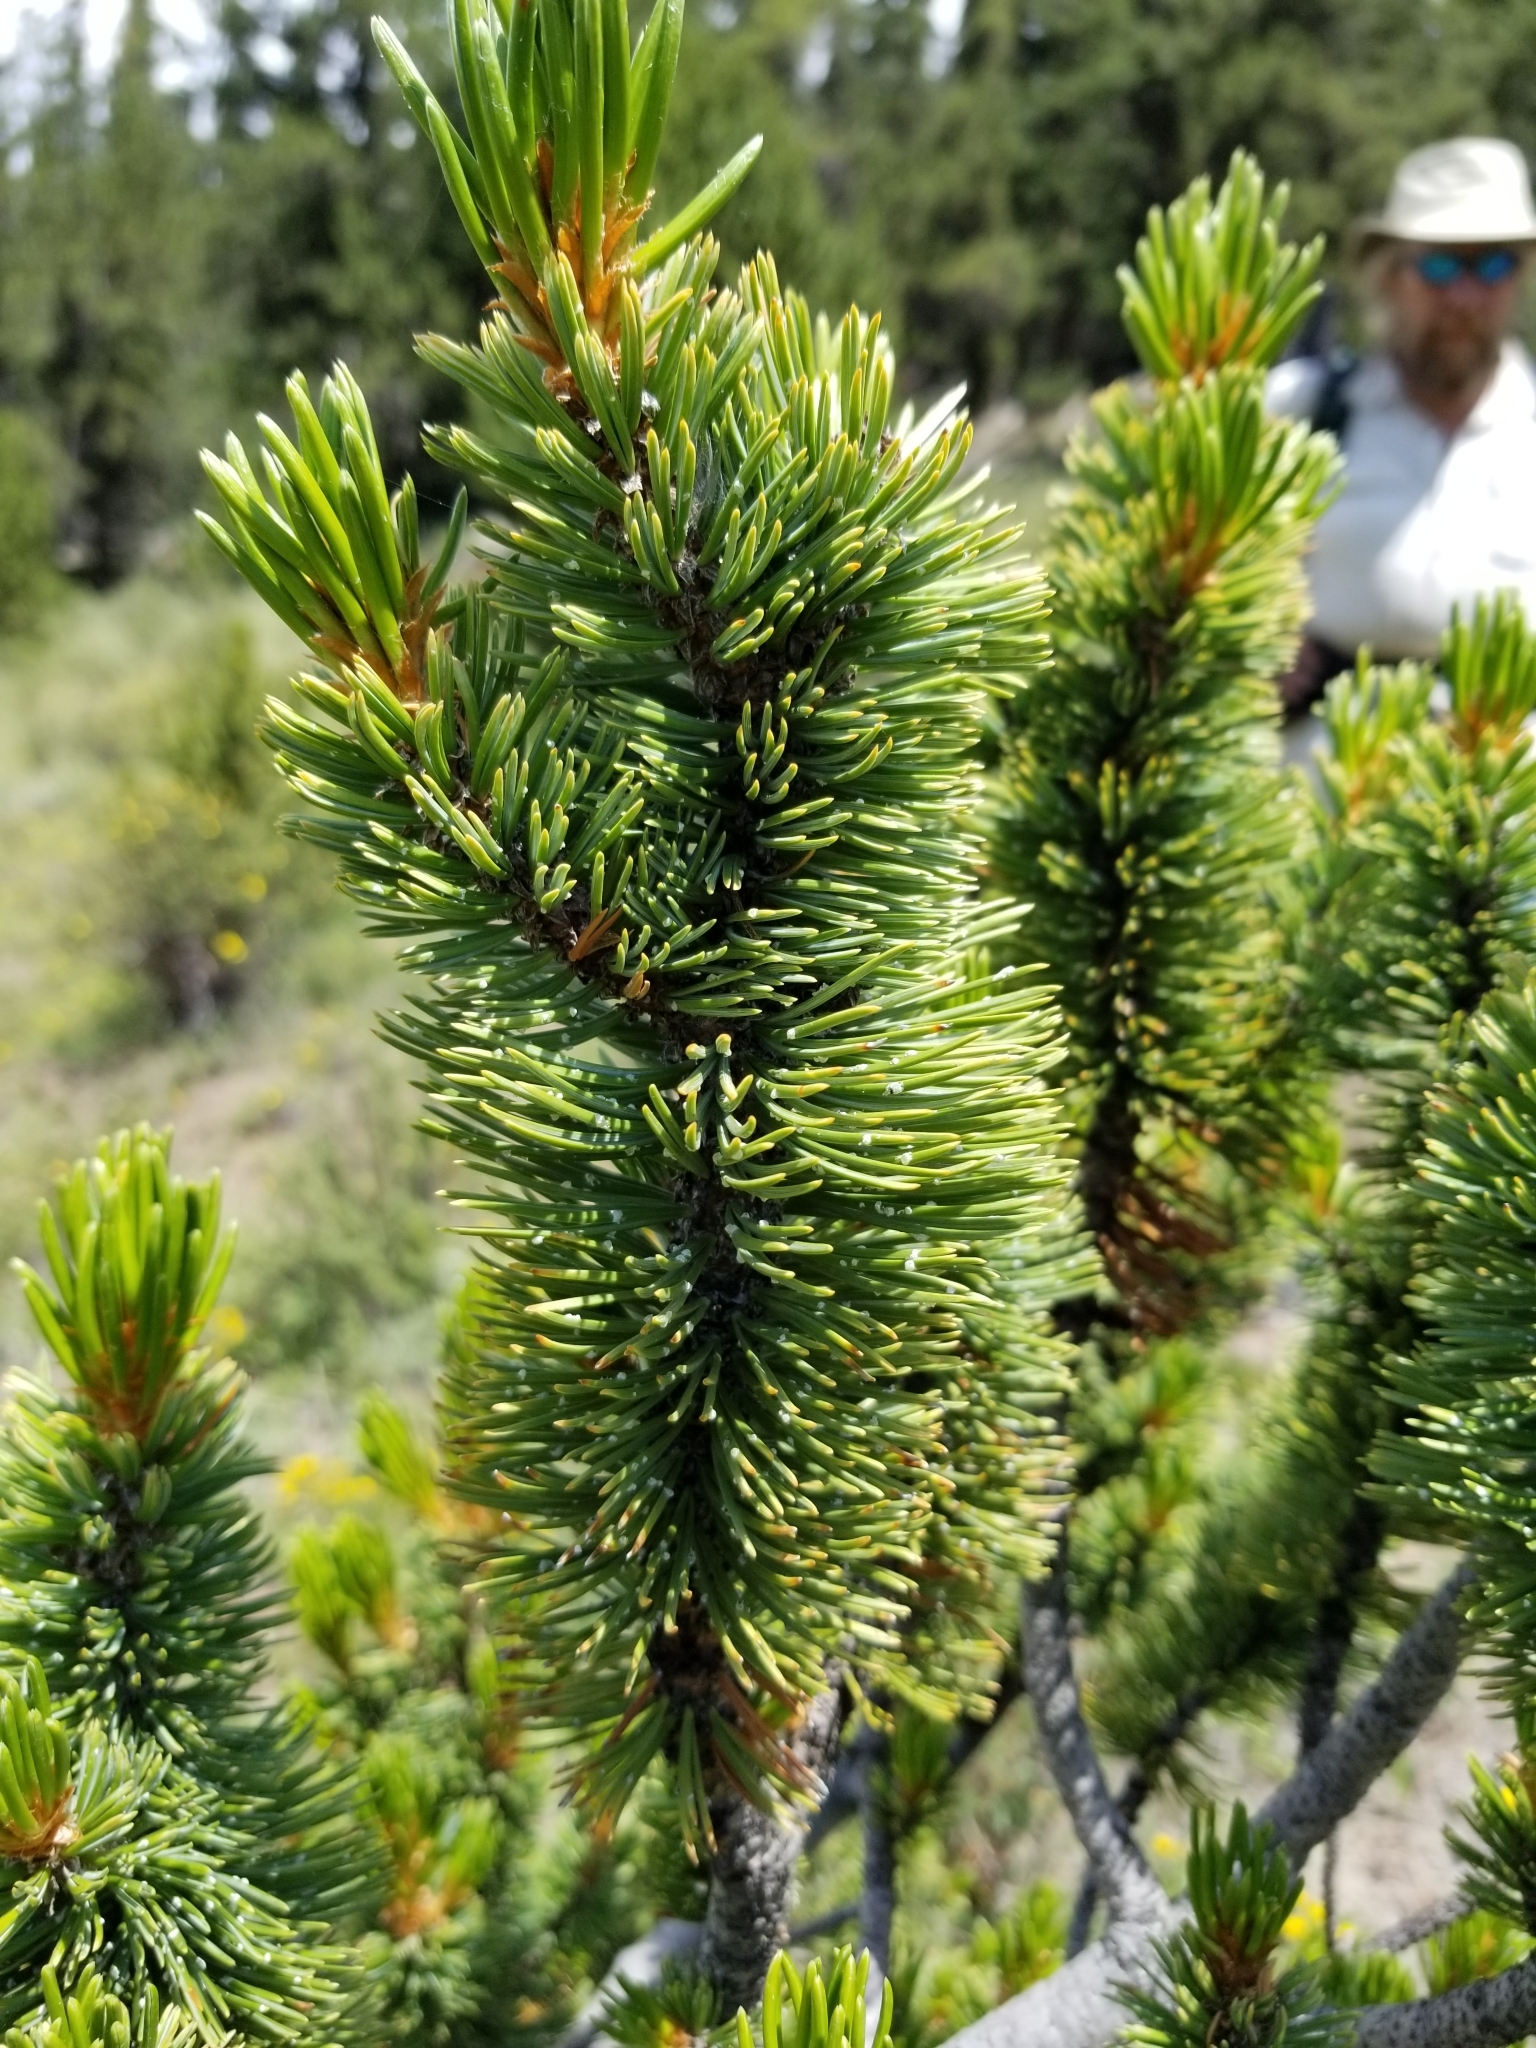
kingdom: Plantae
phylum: Tracheophyta
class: Pinopsida
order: Pinales
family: Pinaceae
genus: Pinus
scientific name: Pinus aristata
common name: Colorado bristlecone pine
